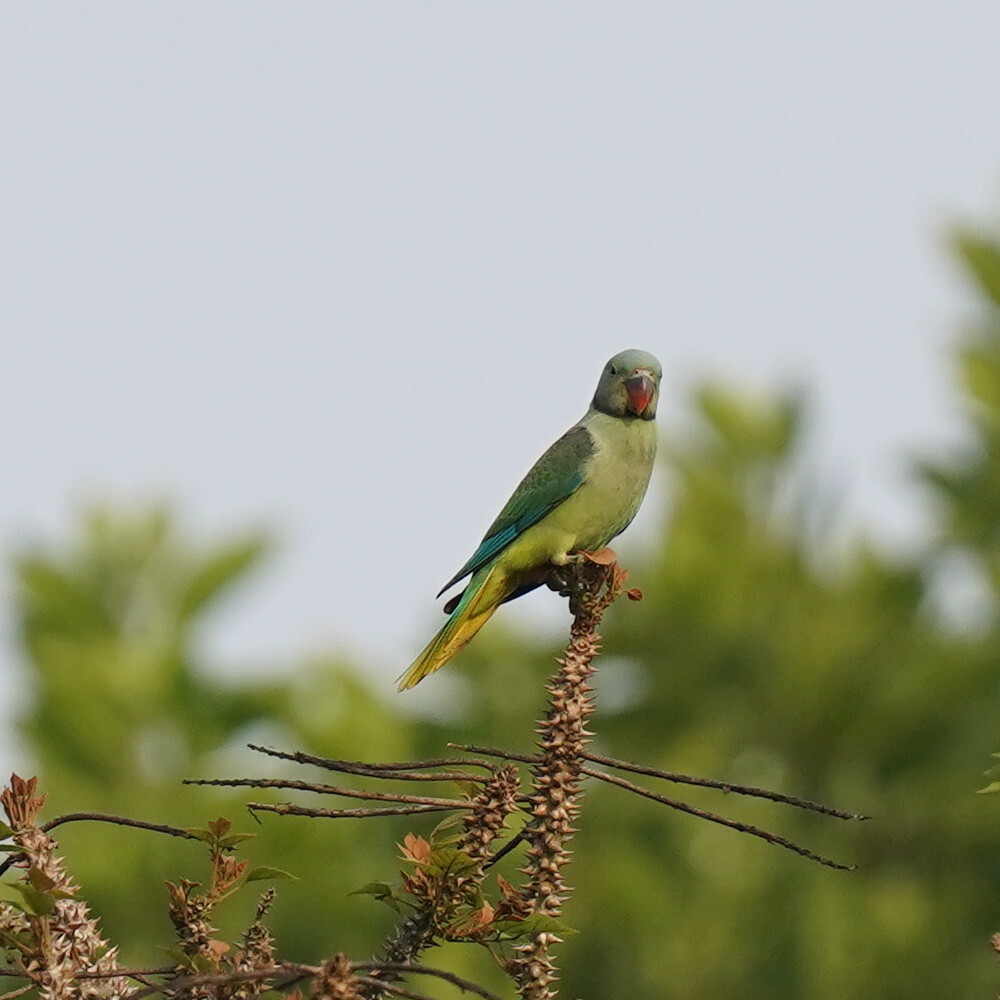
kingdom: Animalia
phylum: Chordata
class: Aves
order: Psittaciformes
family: Psittacidae
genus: Psittacula
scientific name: Psittacula columboides
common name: Blue-winged parakeet
